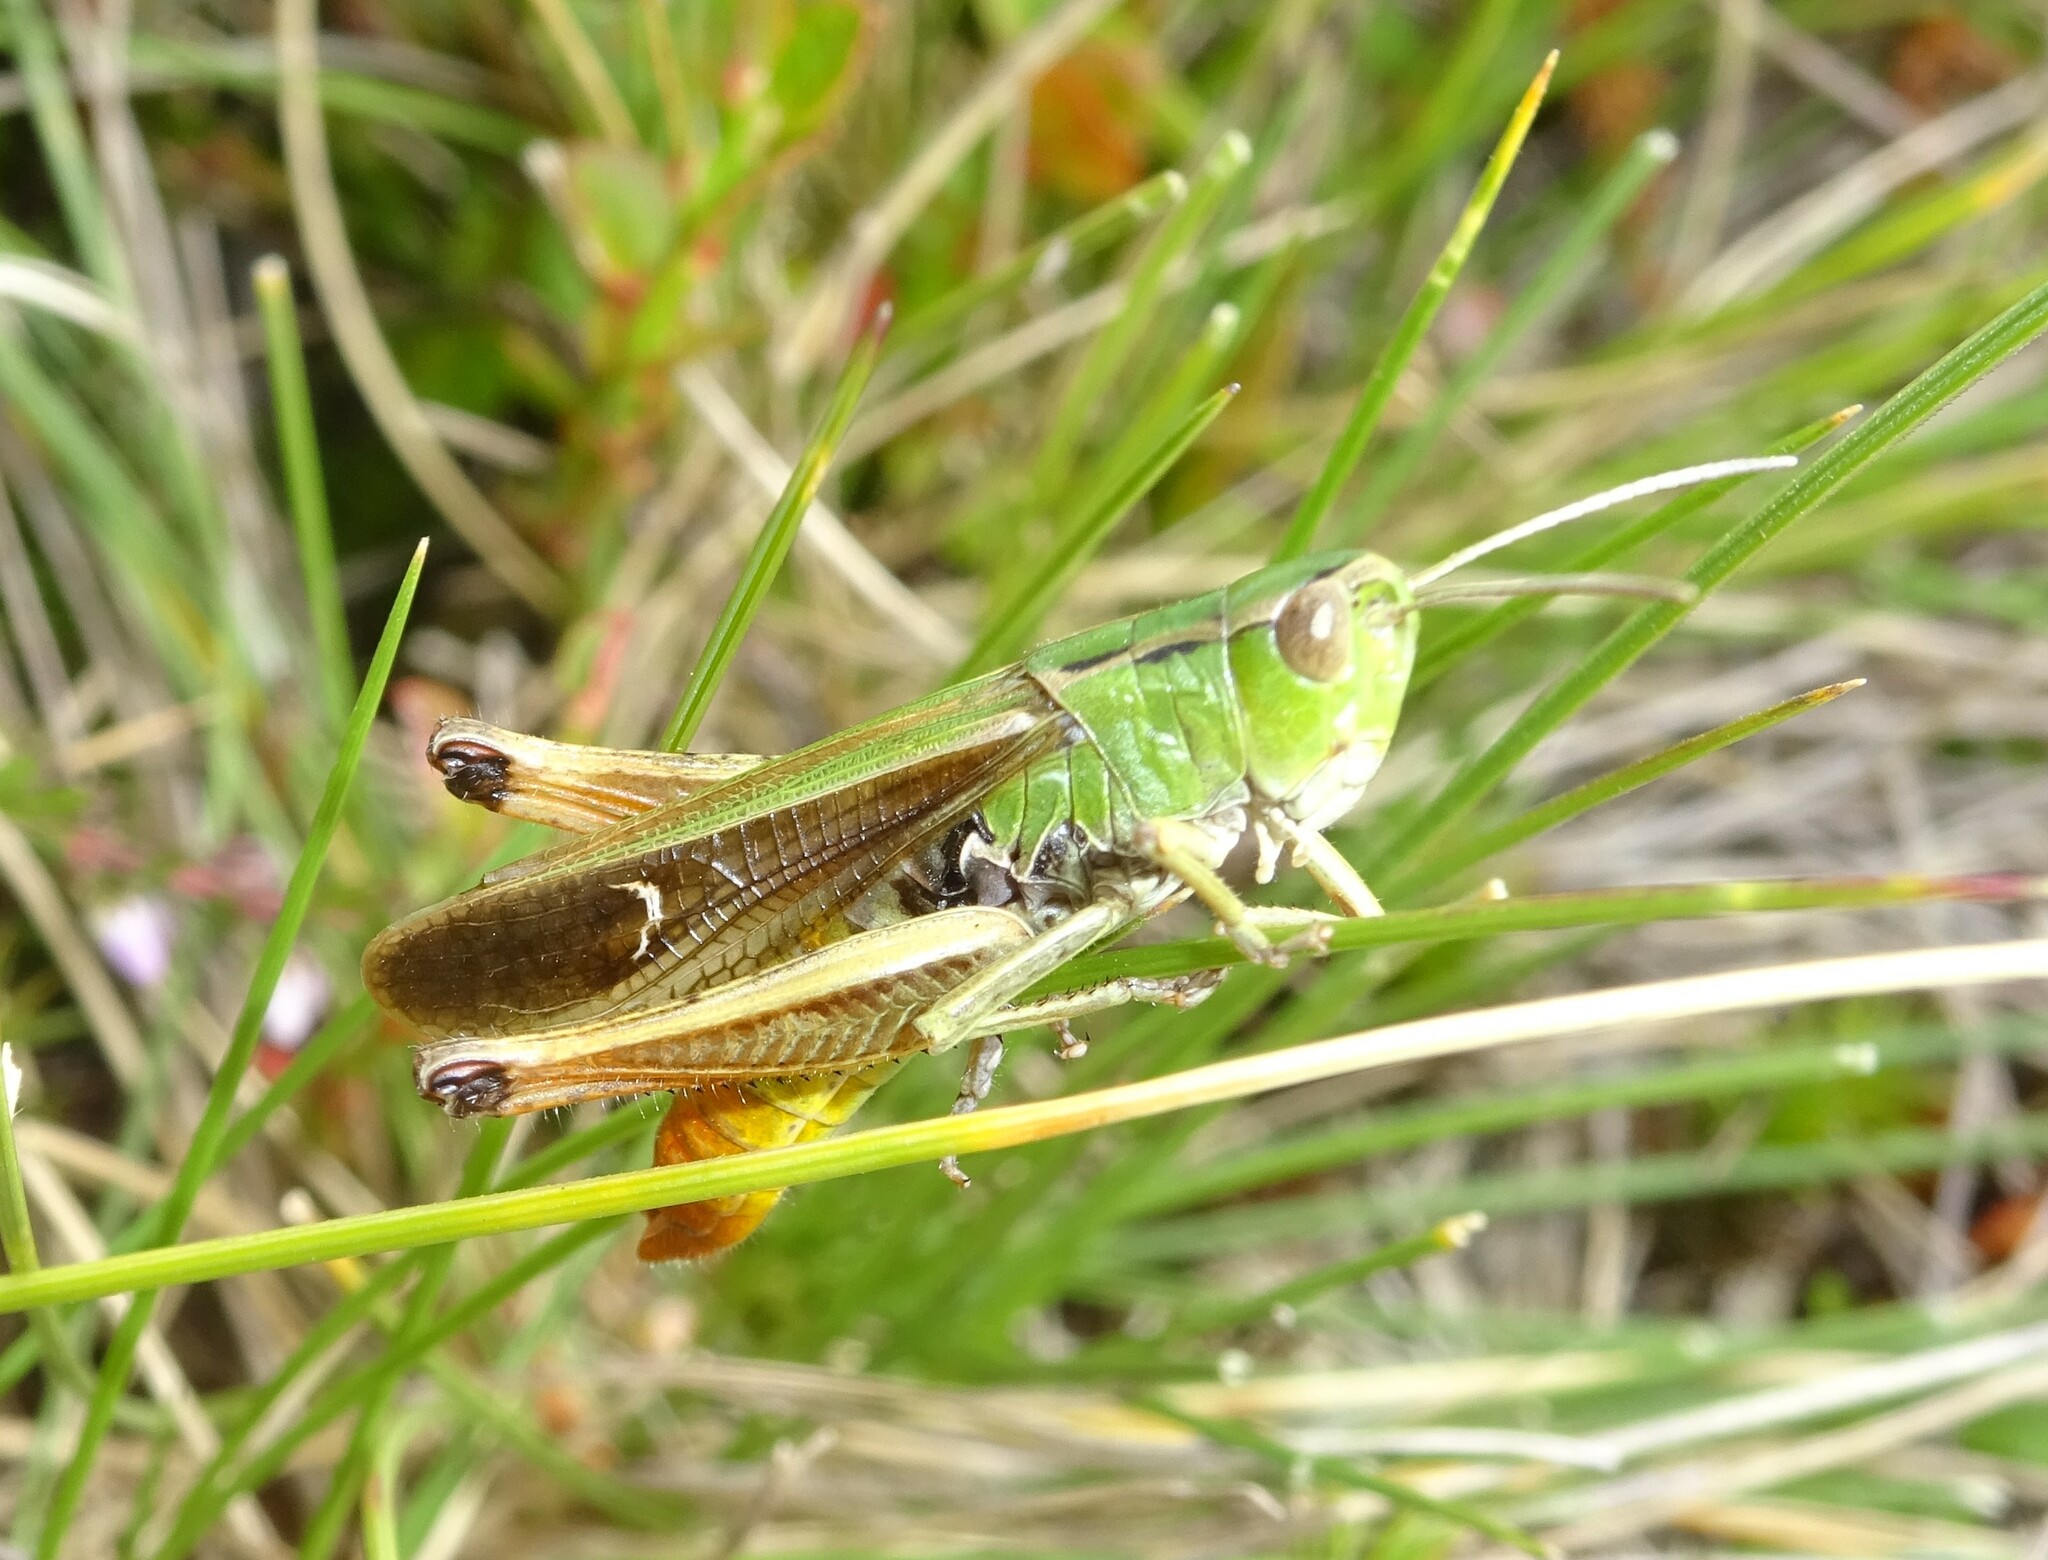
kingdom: Animalia
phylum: Arthropoda
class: Insecta
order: Orthoptera
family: Acrididae
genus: Stenobothrus
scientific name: Stenobothrus lineatus
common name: Stripe-winged grasshopper
